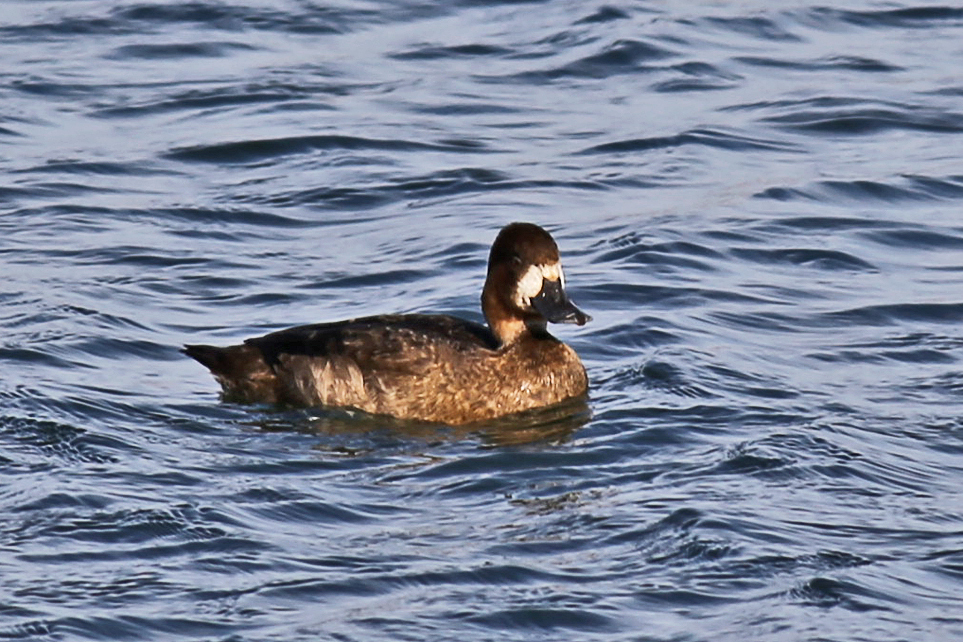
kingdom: Animalia
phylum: Chordata
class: Aves
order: Anseriformes
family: Anatidae
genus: Aythya
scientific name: Aythya affinis
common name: Lesser scaup
